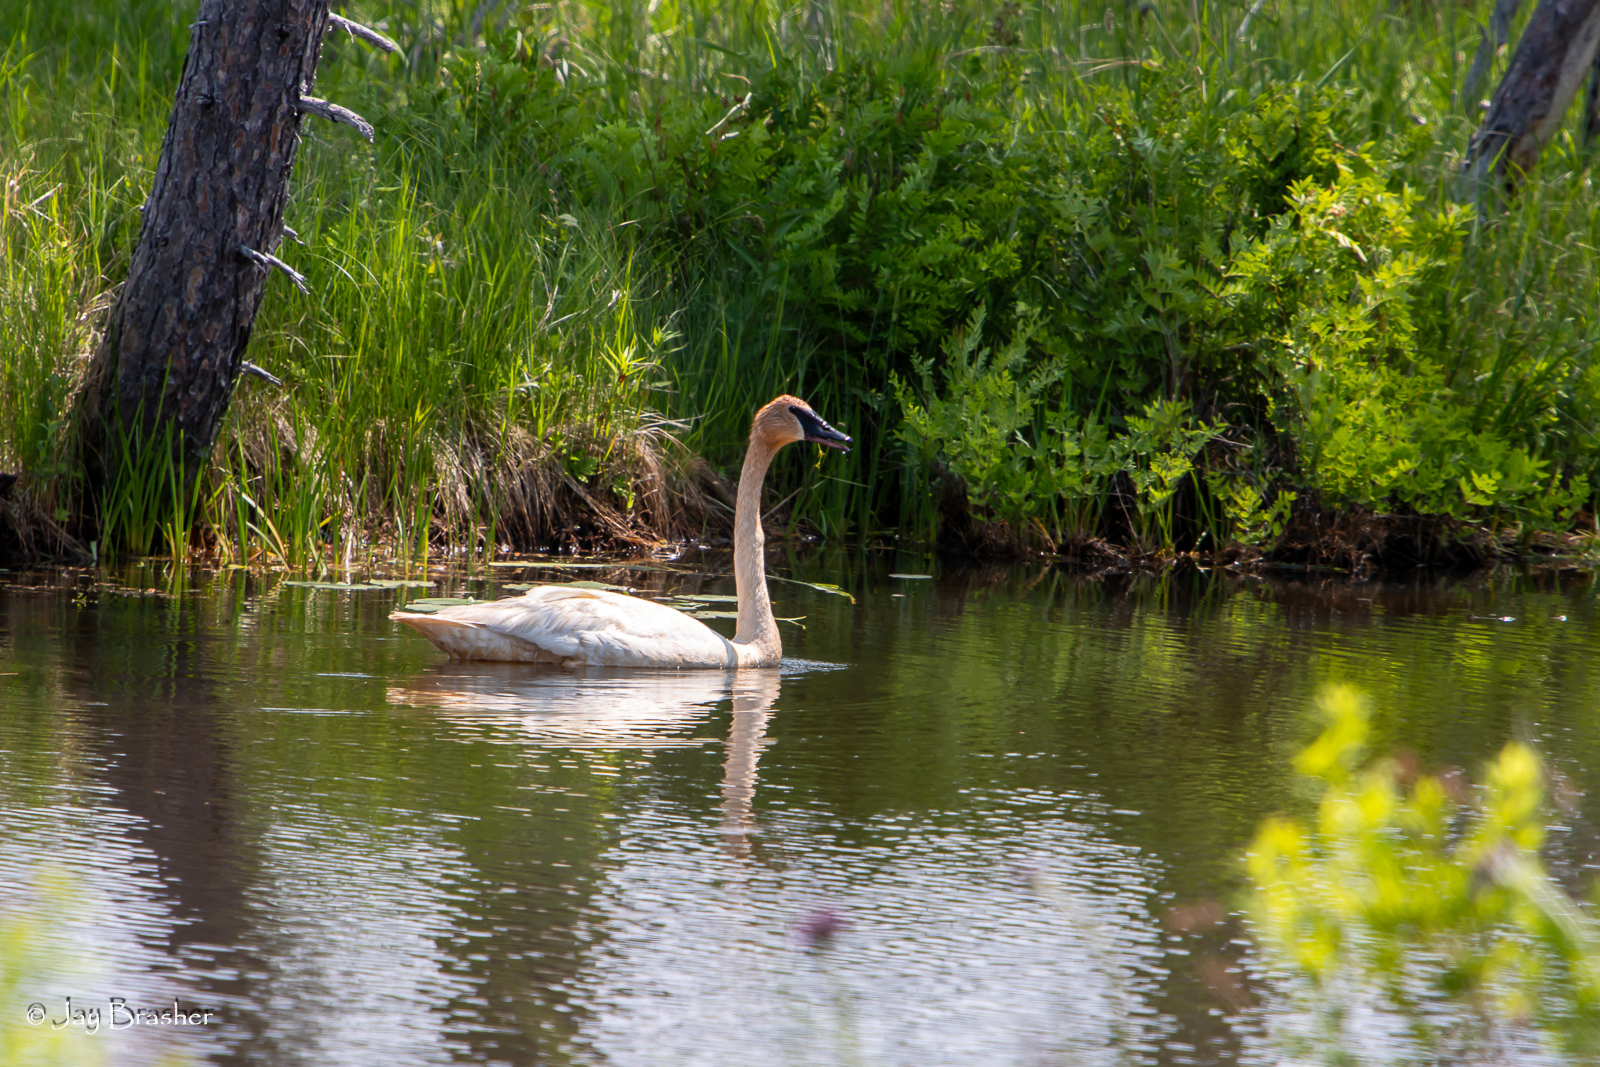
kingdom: Animalia
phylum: Chordata
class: Aves
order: Anseriformes
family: Anatidae
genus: Cygnus
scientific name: Cygnus buccinator
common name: Trumpeter swan
